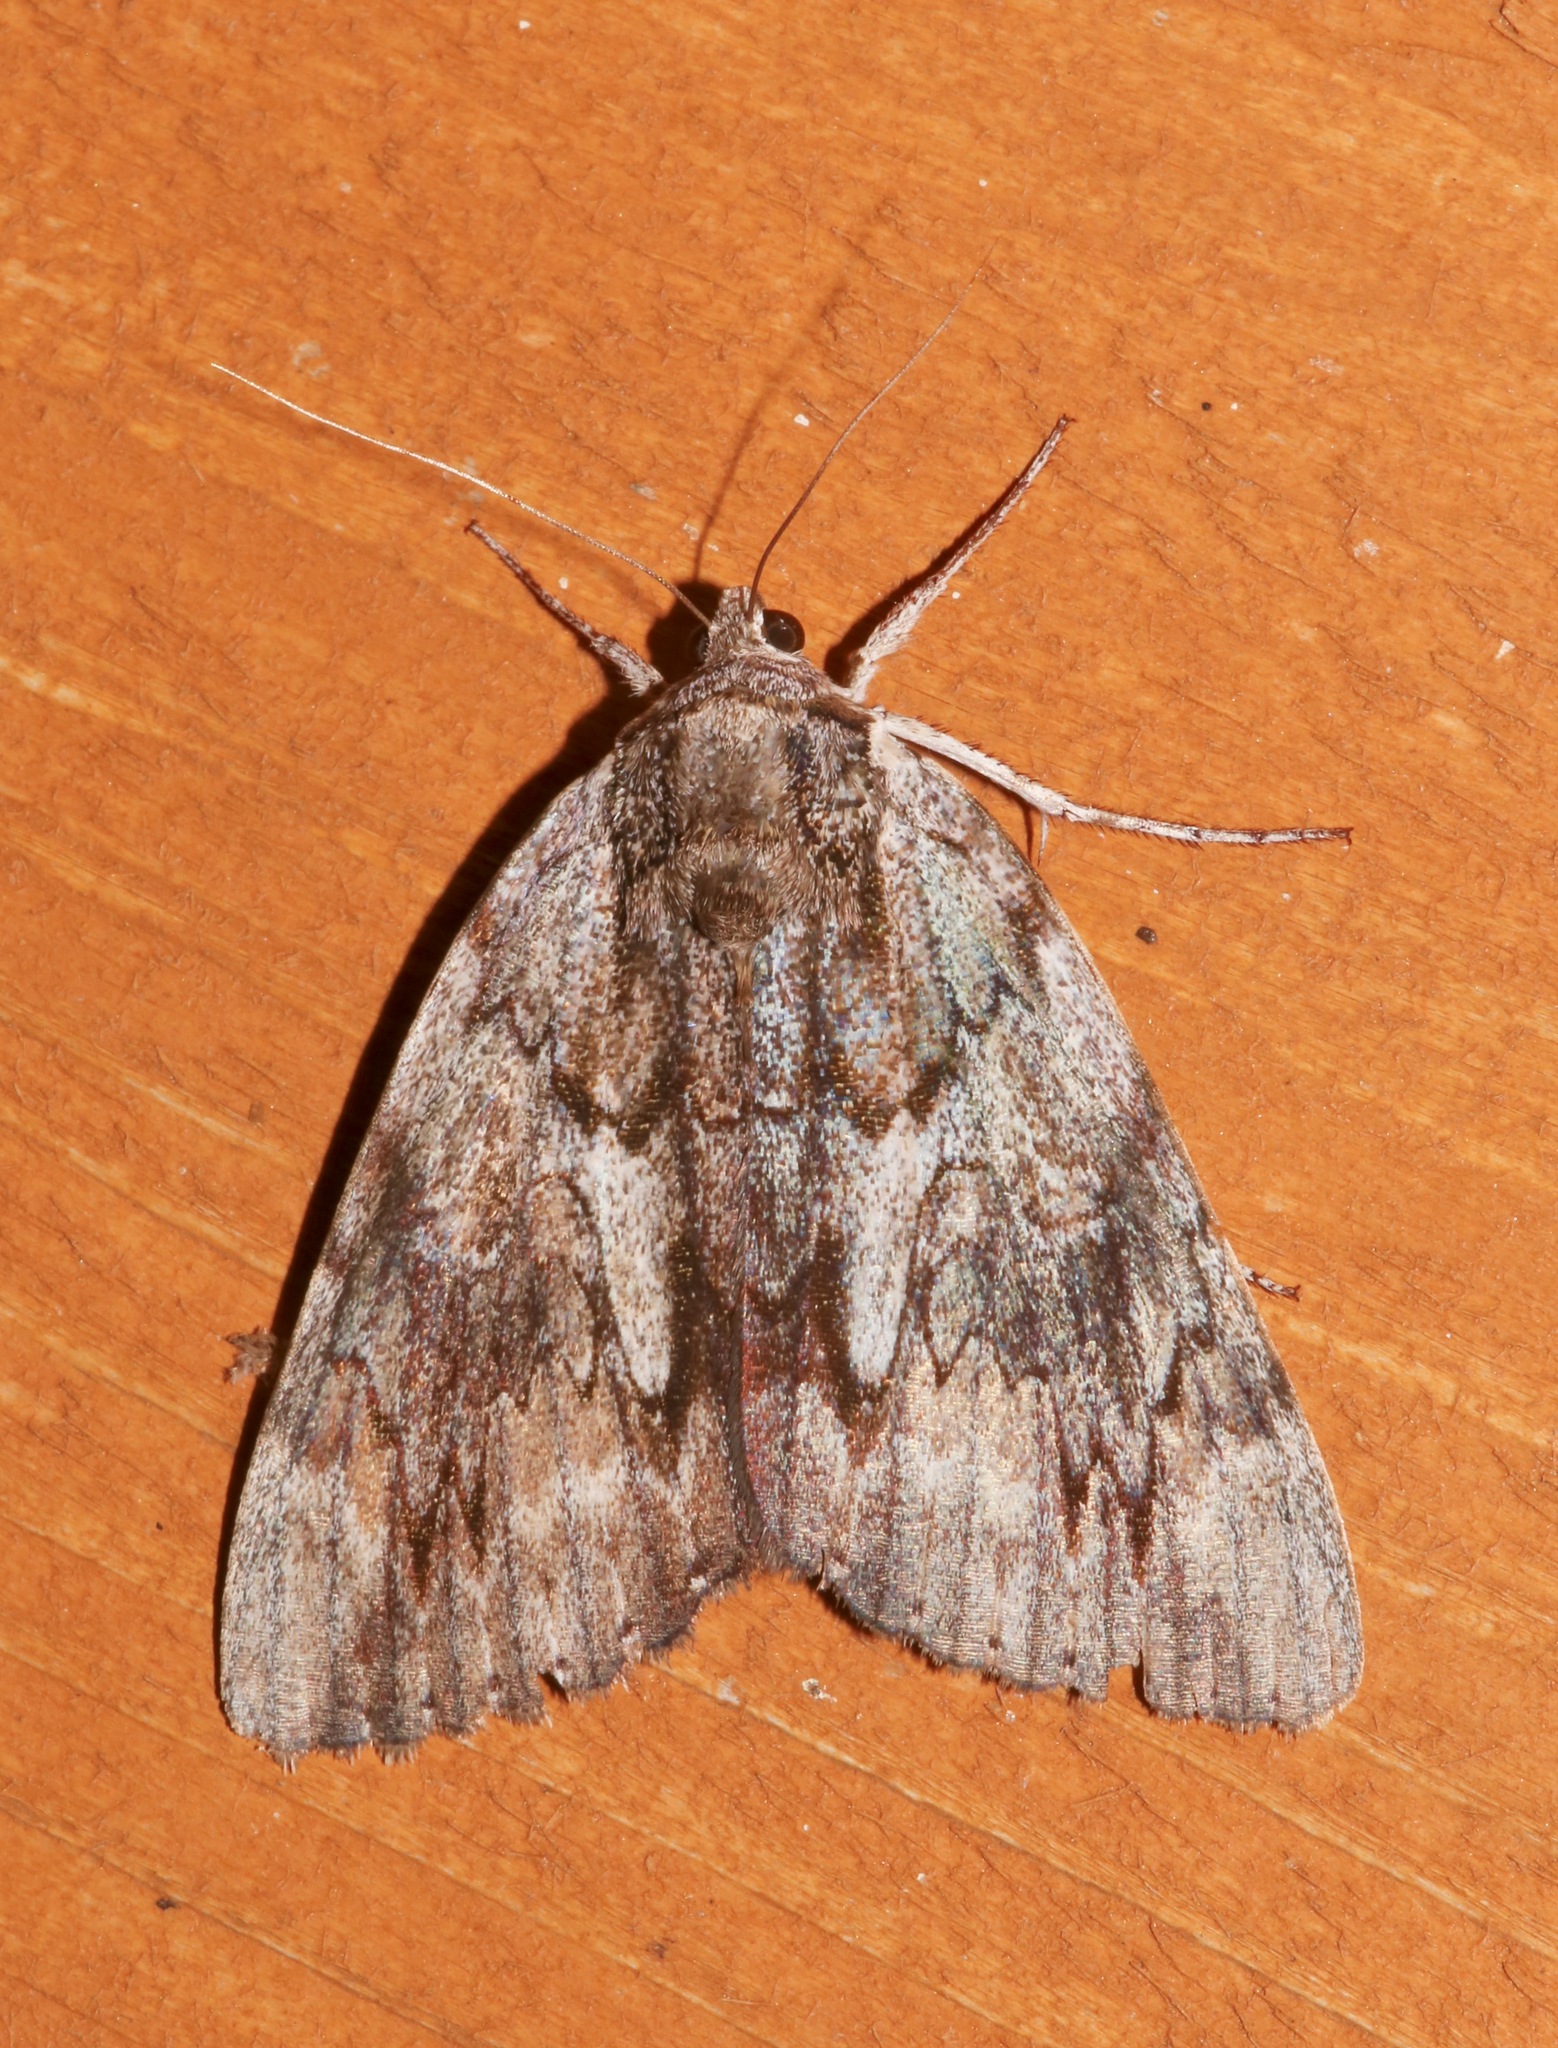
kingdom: Animalia
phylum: Arthropoda
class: Insecta
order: Lepidoptera
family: Erebidae
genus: Catocala
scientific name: Catocala insolabilis
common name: Inconsolable underwing
